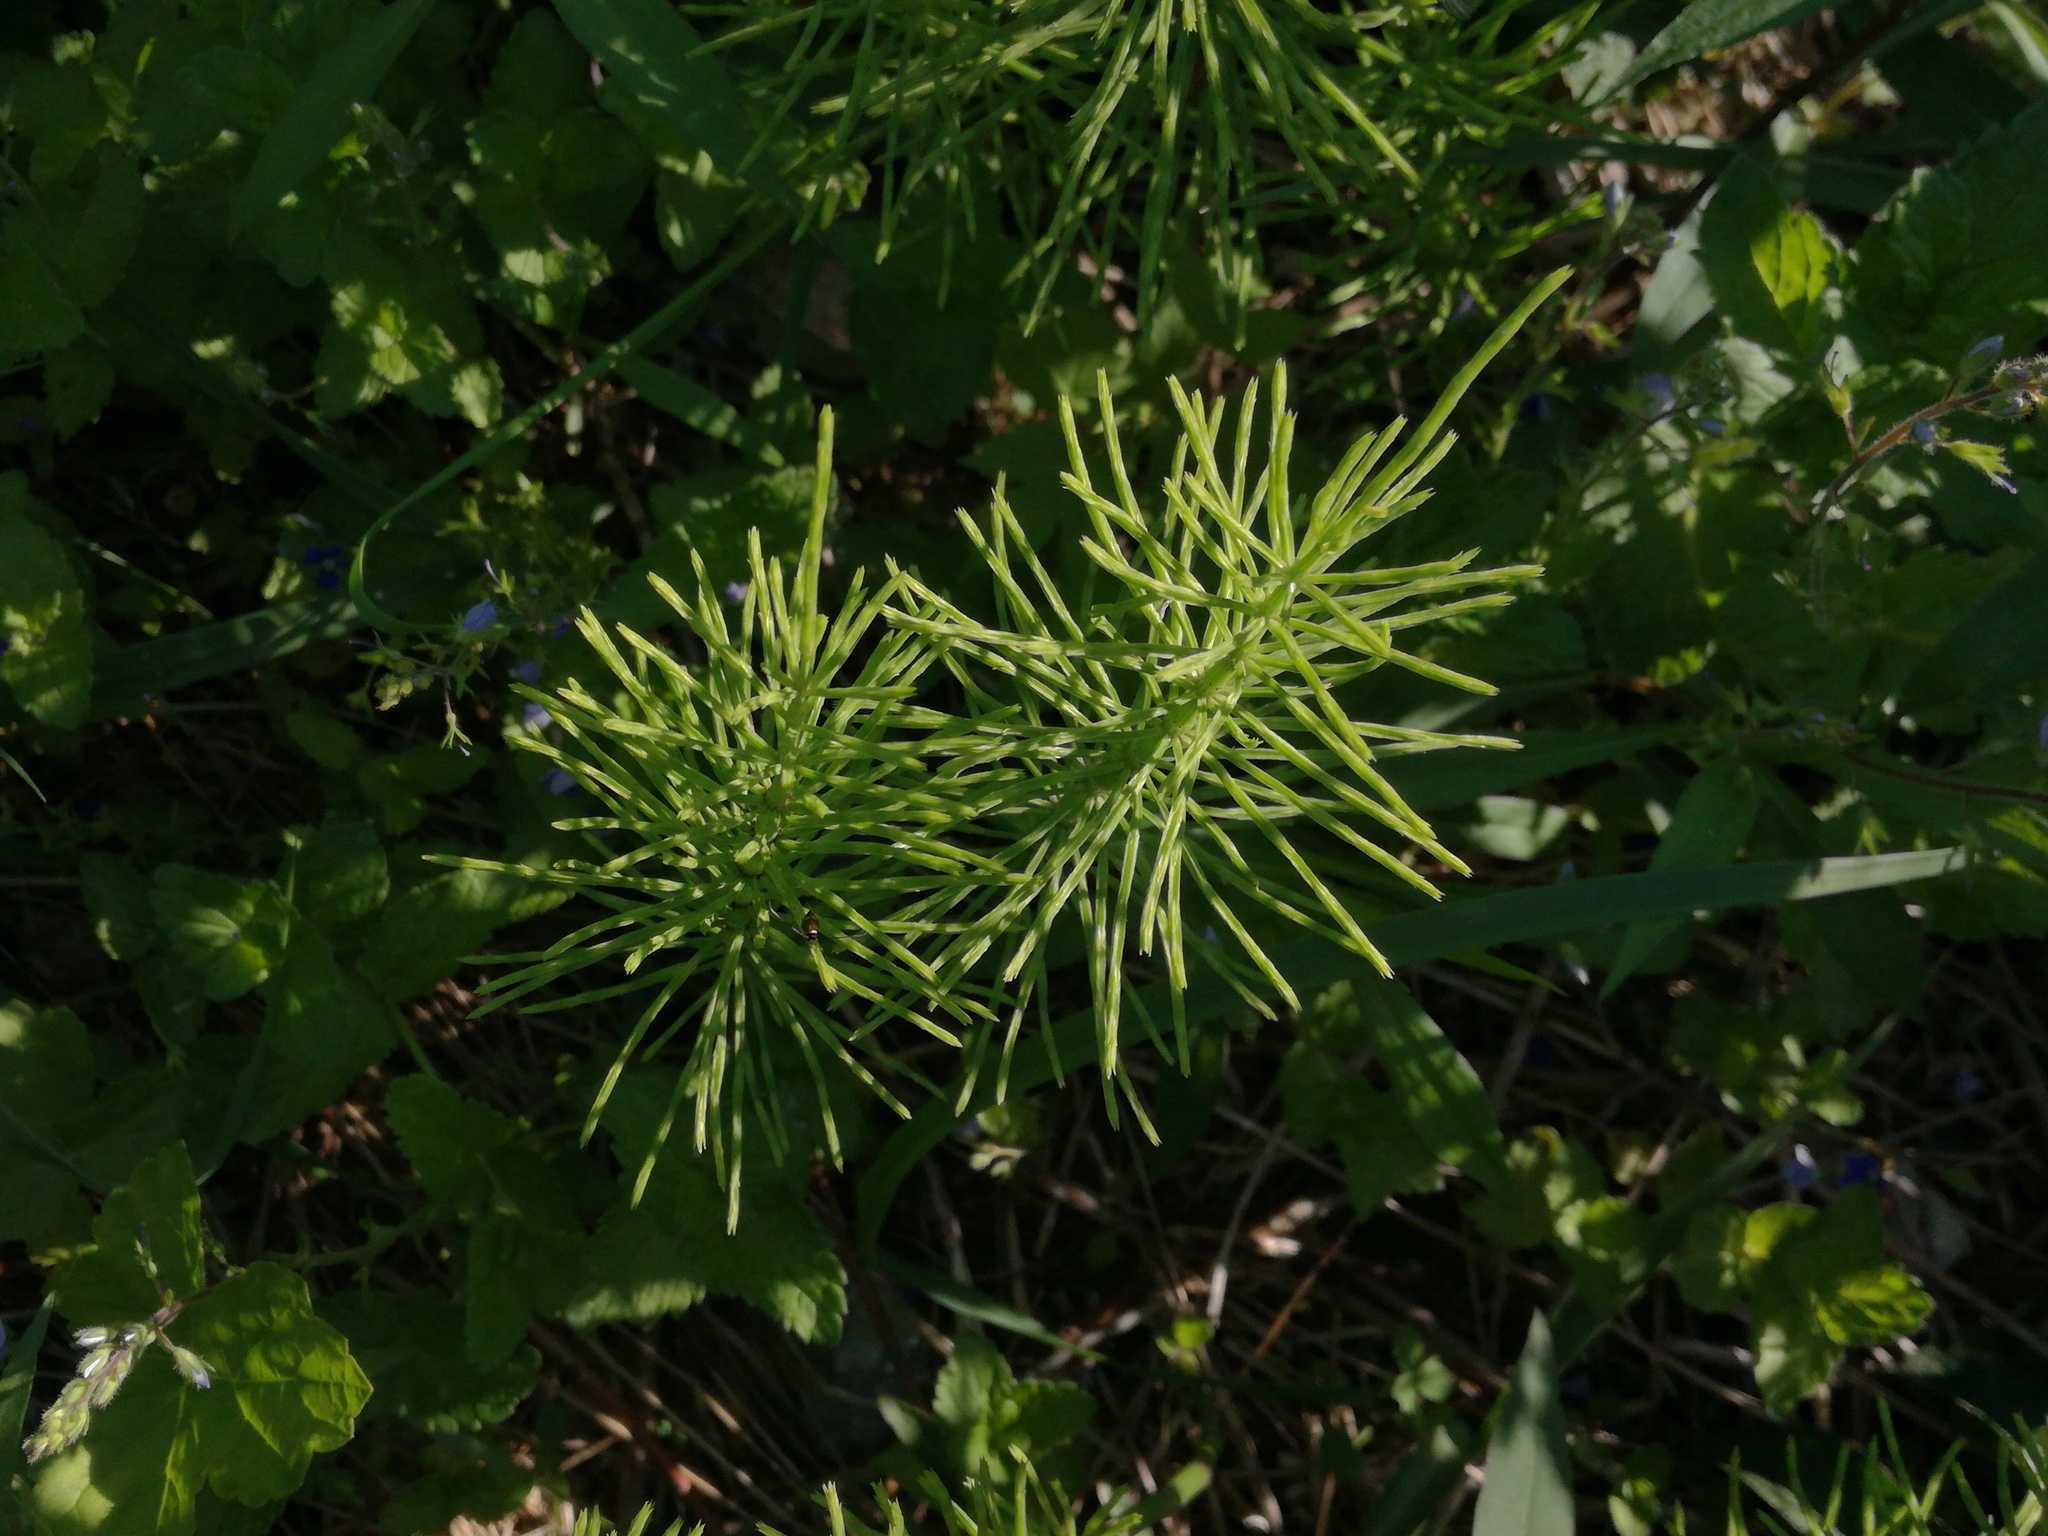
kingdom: Plantae
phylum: Tracheophyta
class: Polypodiopsida
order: Equisetales
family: Equisetaceae
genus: Equisetum
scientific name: Equisetum arvense
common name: Field horsetail
